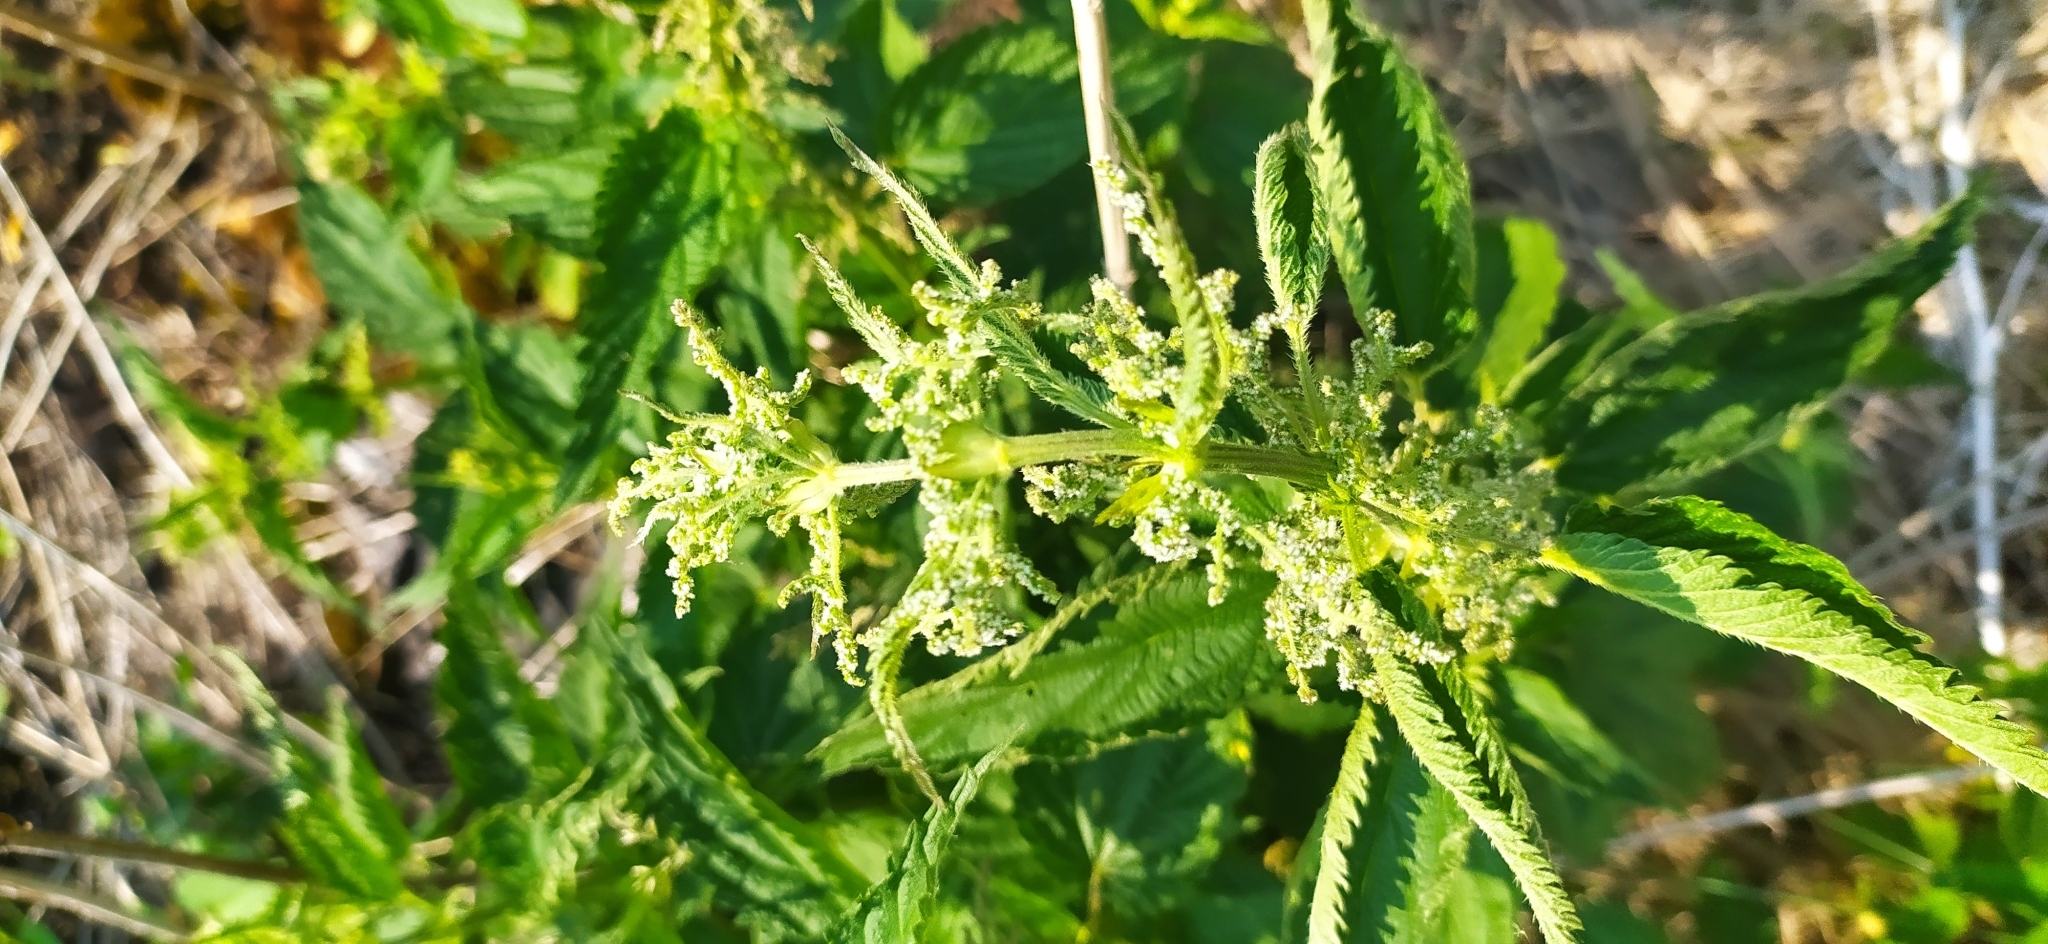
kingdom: Plantae
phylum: Tracheophyta
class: Magnoliopsida
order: Rosales
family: Urticaceae
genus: Urtica
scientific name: Urtica dioica
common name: Common nettle
